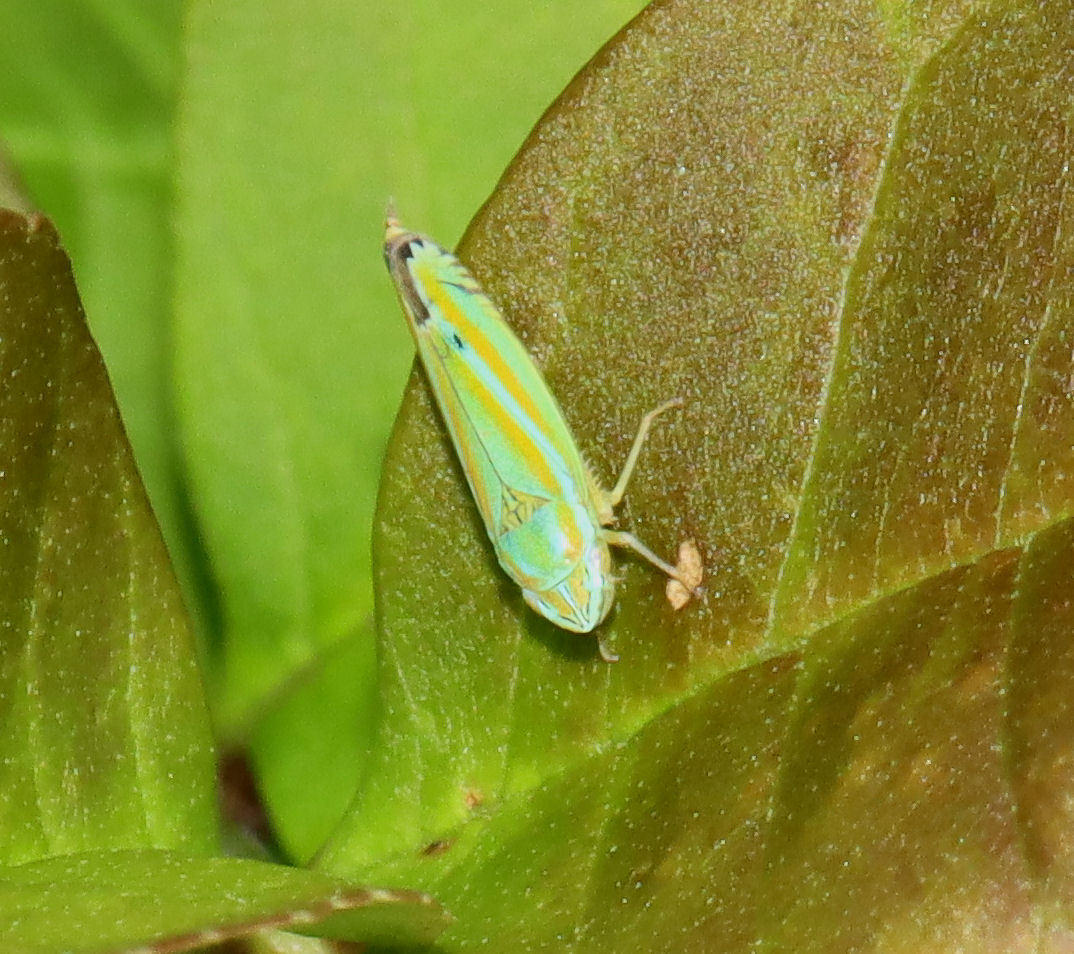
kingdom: Animalia
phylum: Arthropoda
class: Insecta
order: Hemiptera
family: Cicadellidae
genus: Graphocephala
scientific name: Graphocephala versuta
